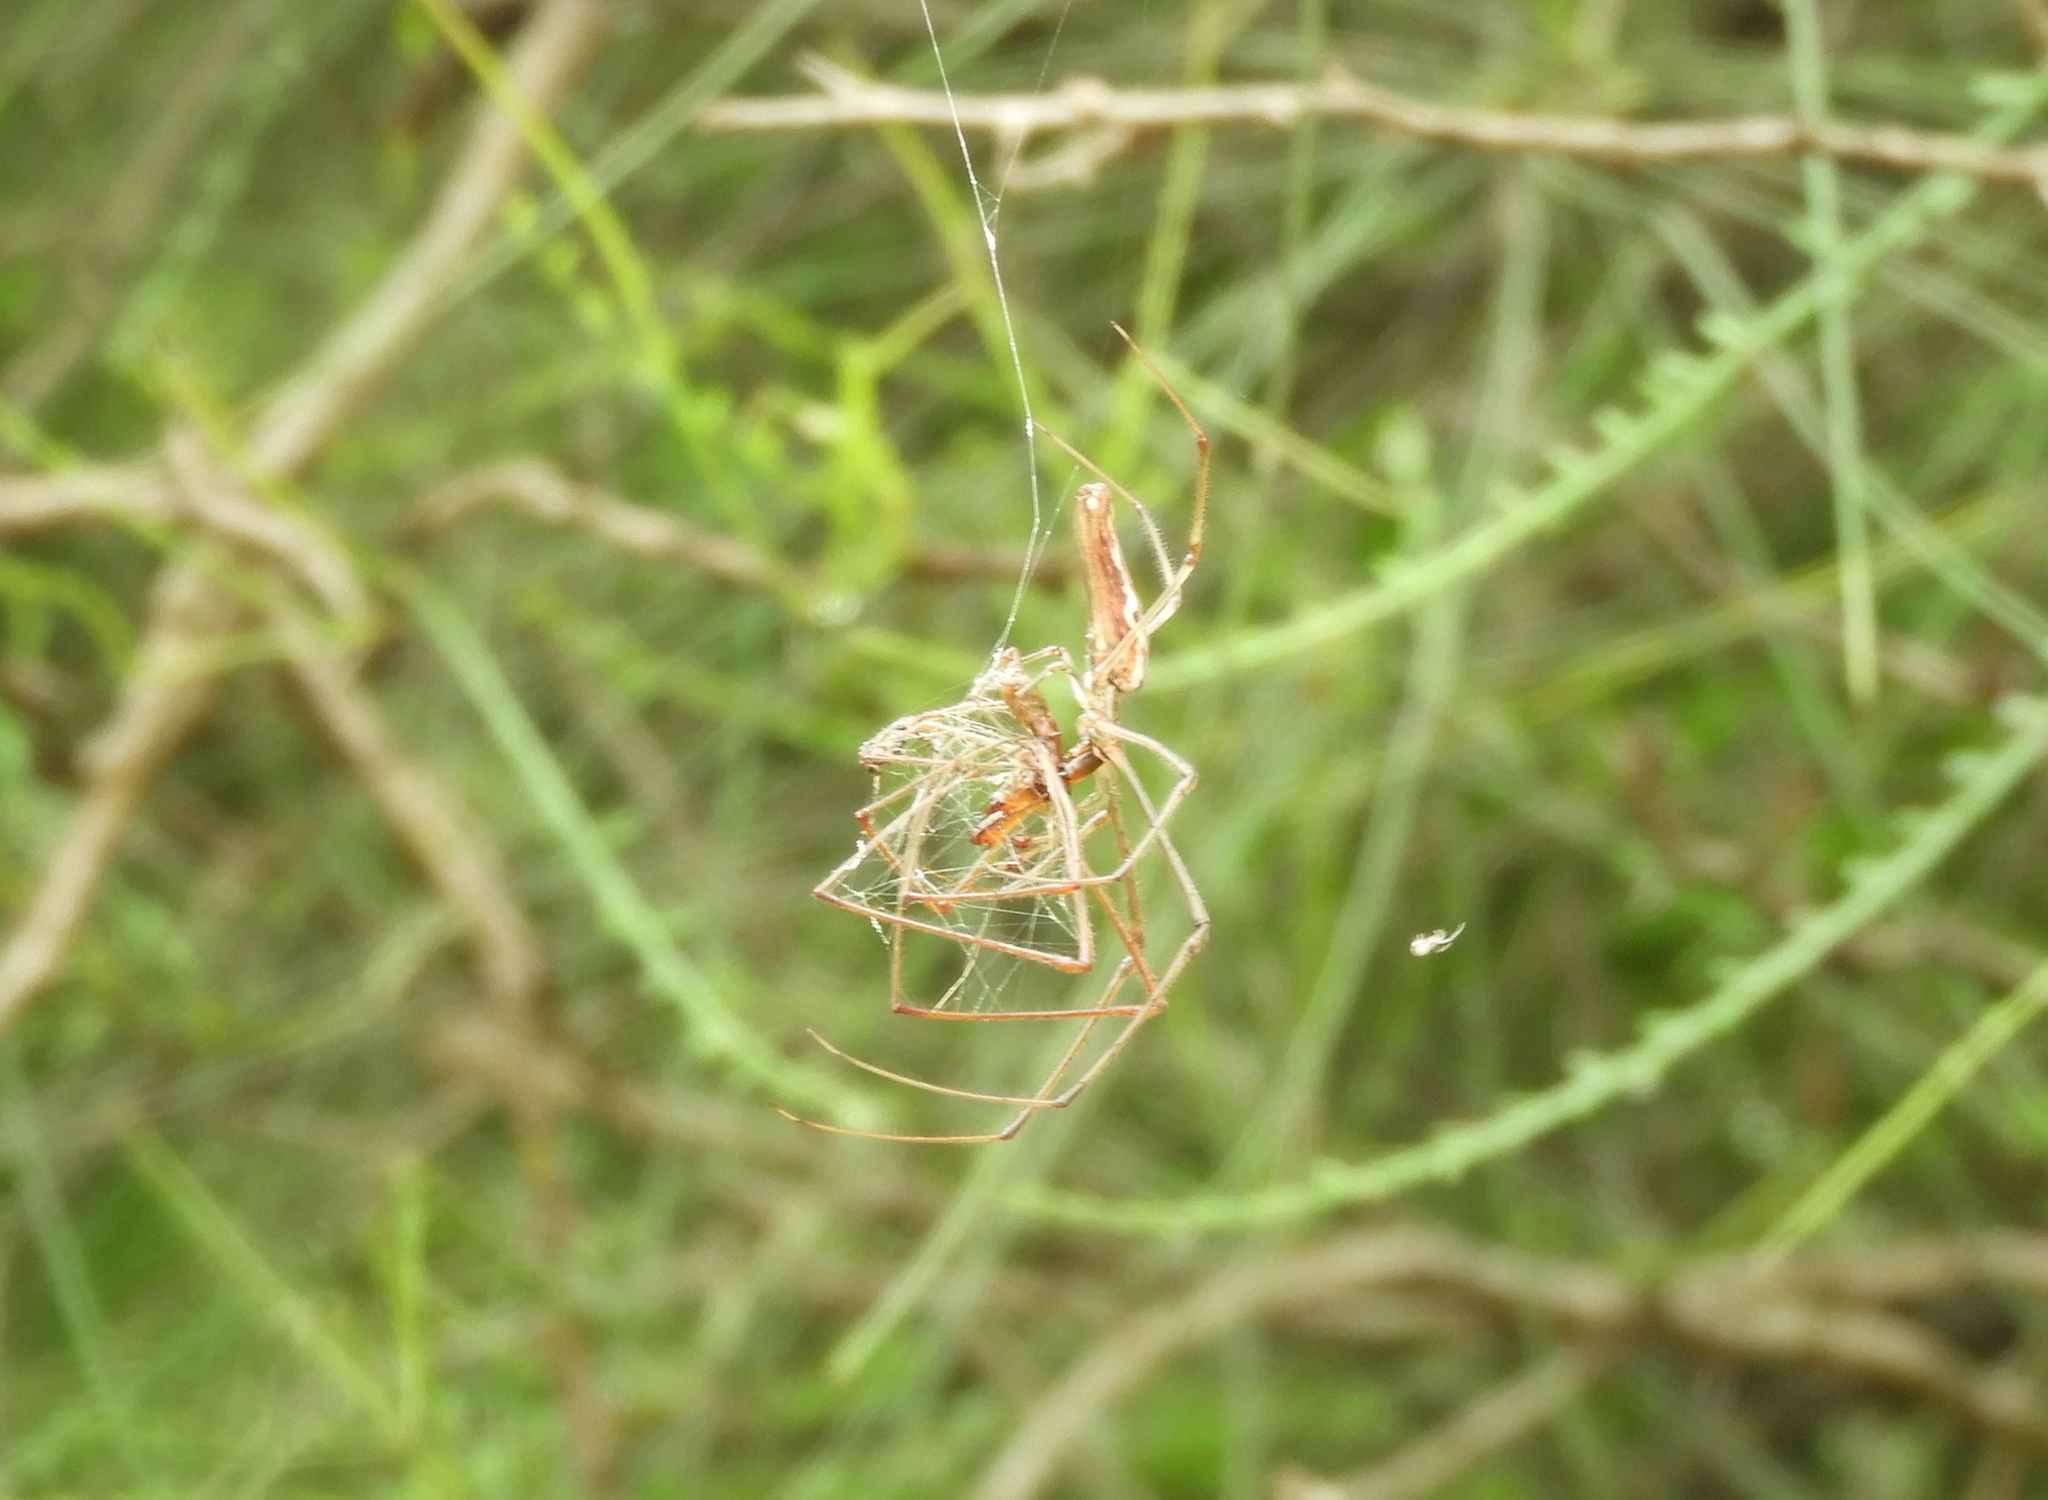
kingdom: Animalia
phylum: Arthropoda
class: Arachnida
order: Araneae
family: Tetragnathidae
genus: Tetragnatha
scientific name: Tetragnatha
